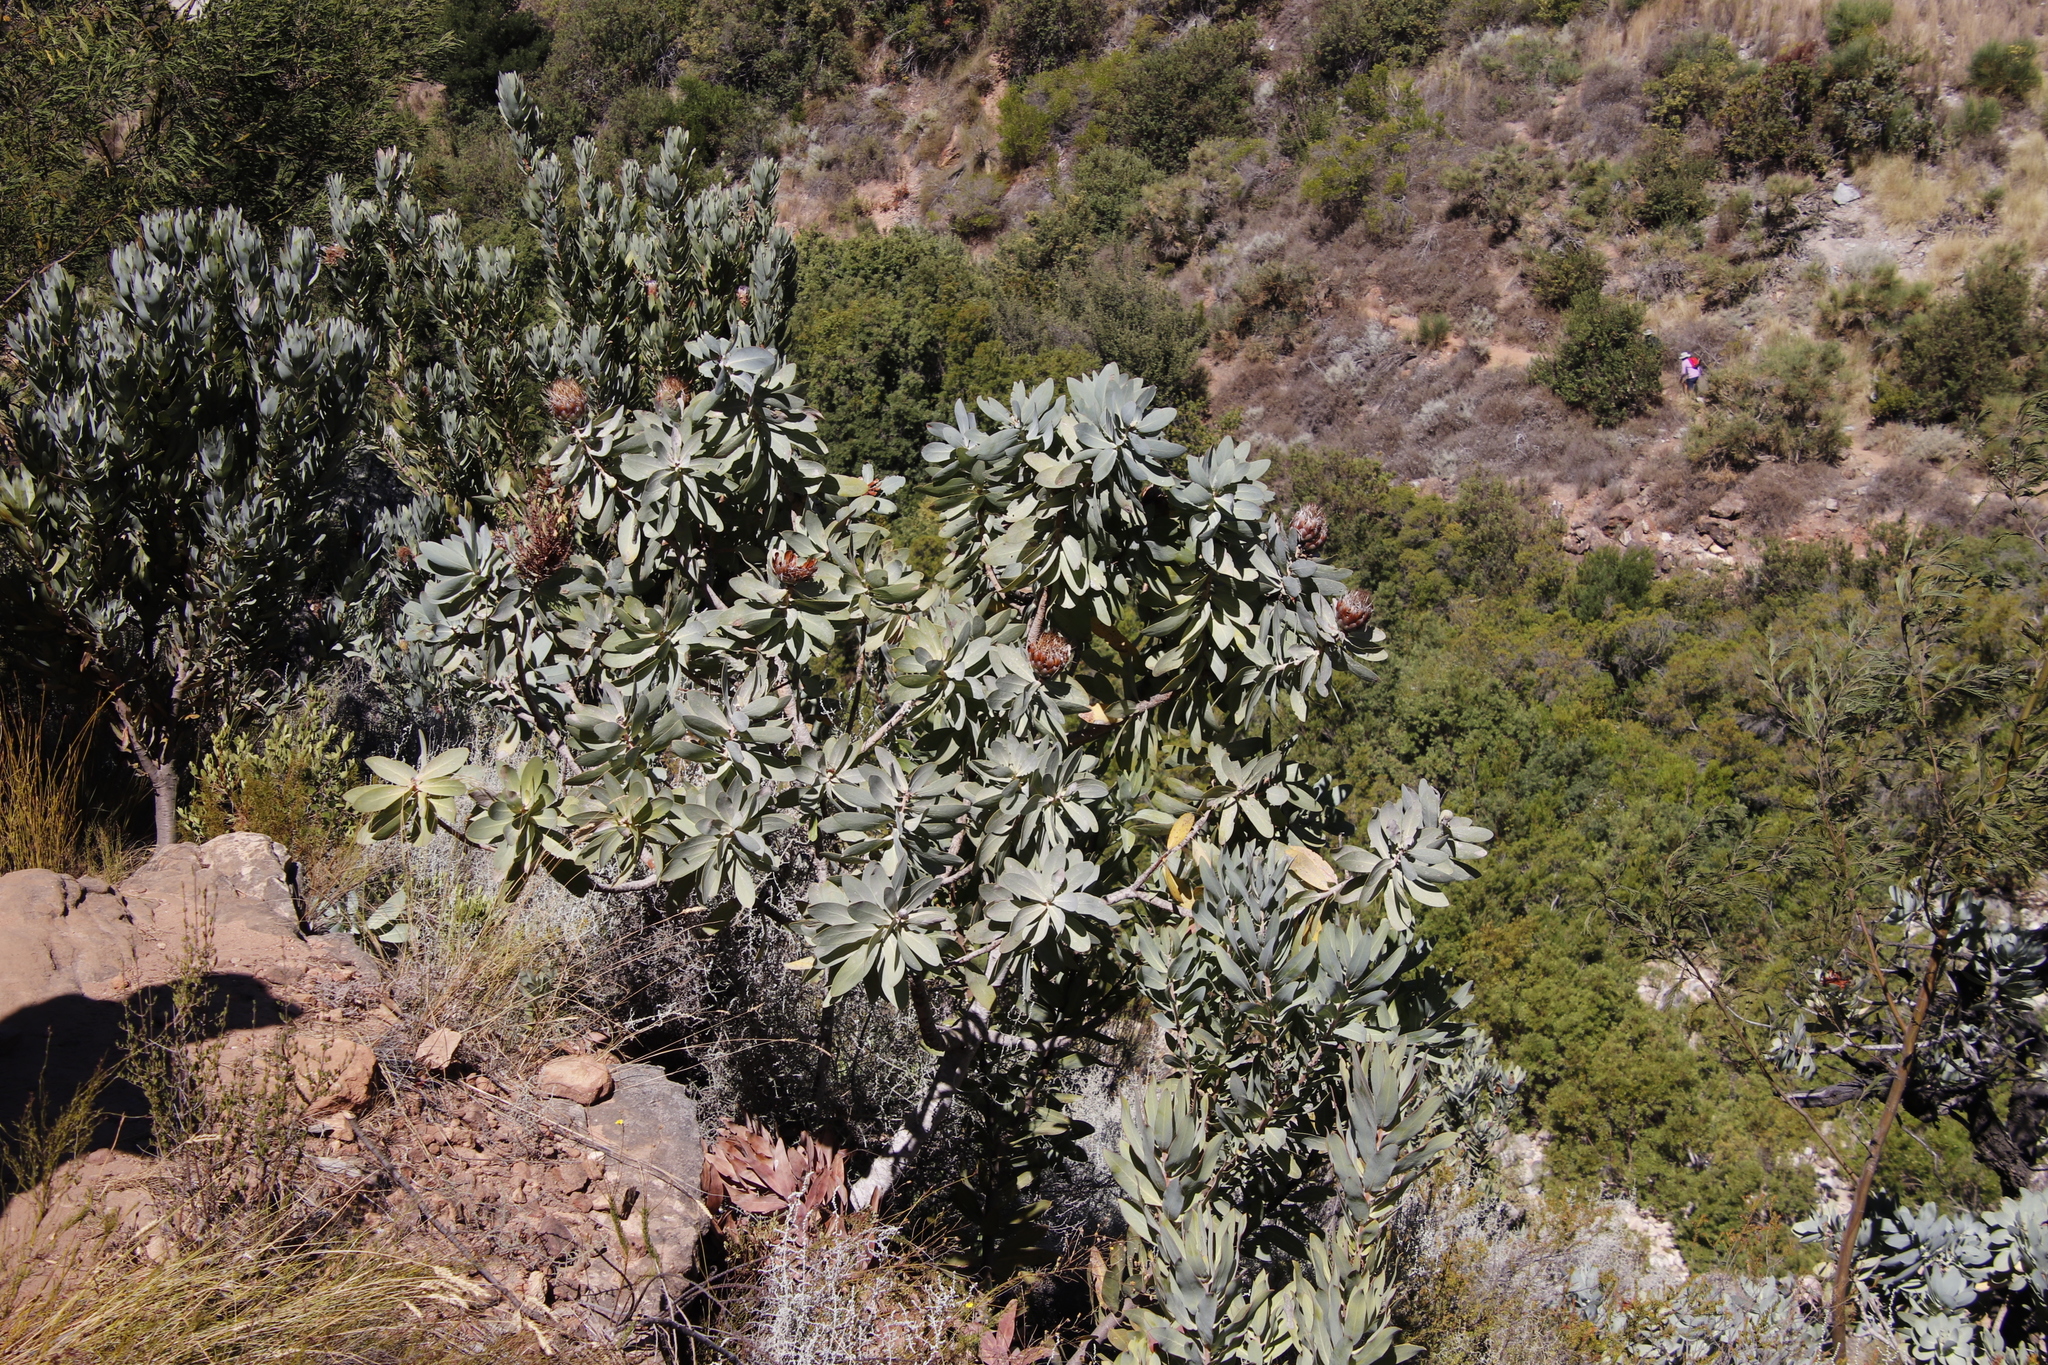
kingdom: Plantae
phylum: Tracheophyta
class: Magnoliopsida
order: Proteales
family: Proteaceae
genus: Protea
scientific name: Protea nitida
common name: Tree protea
